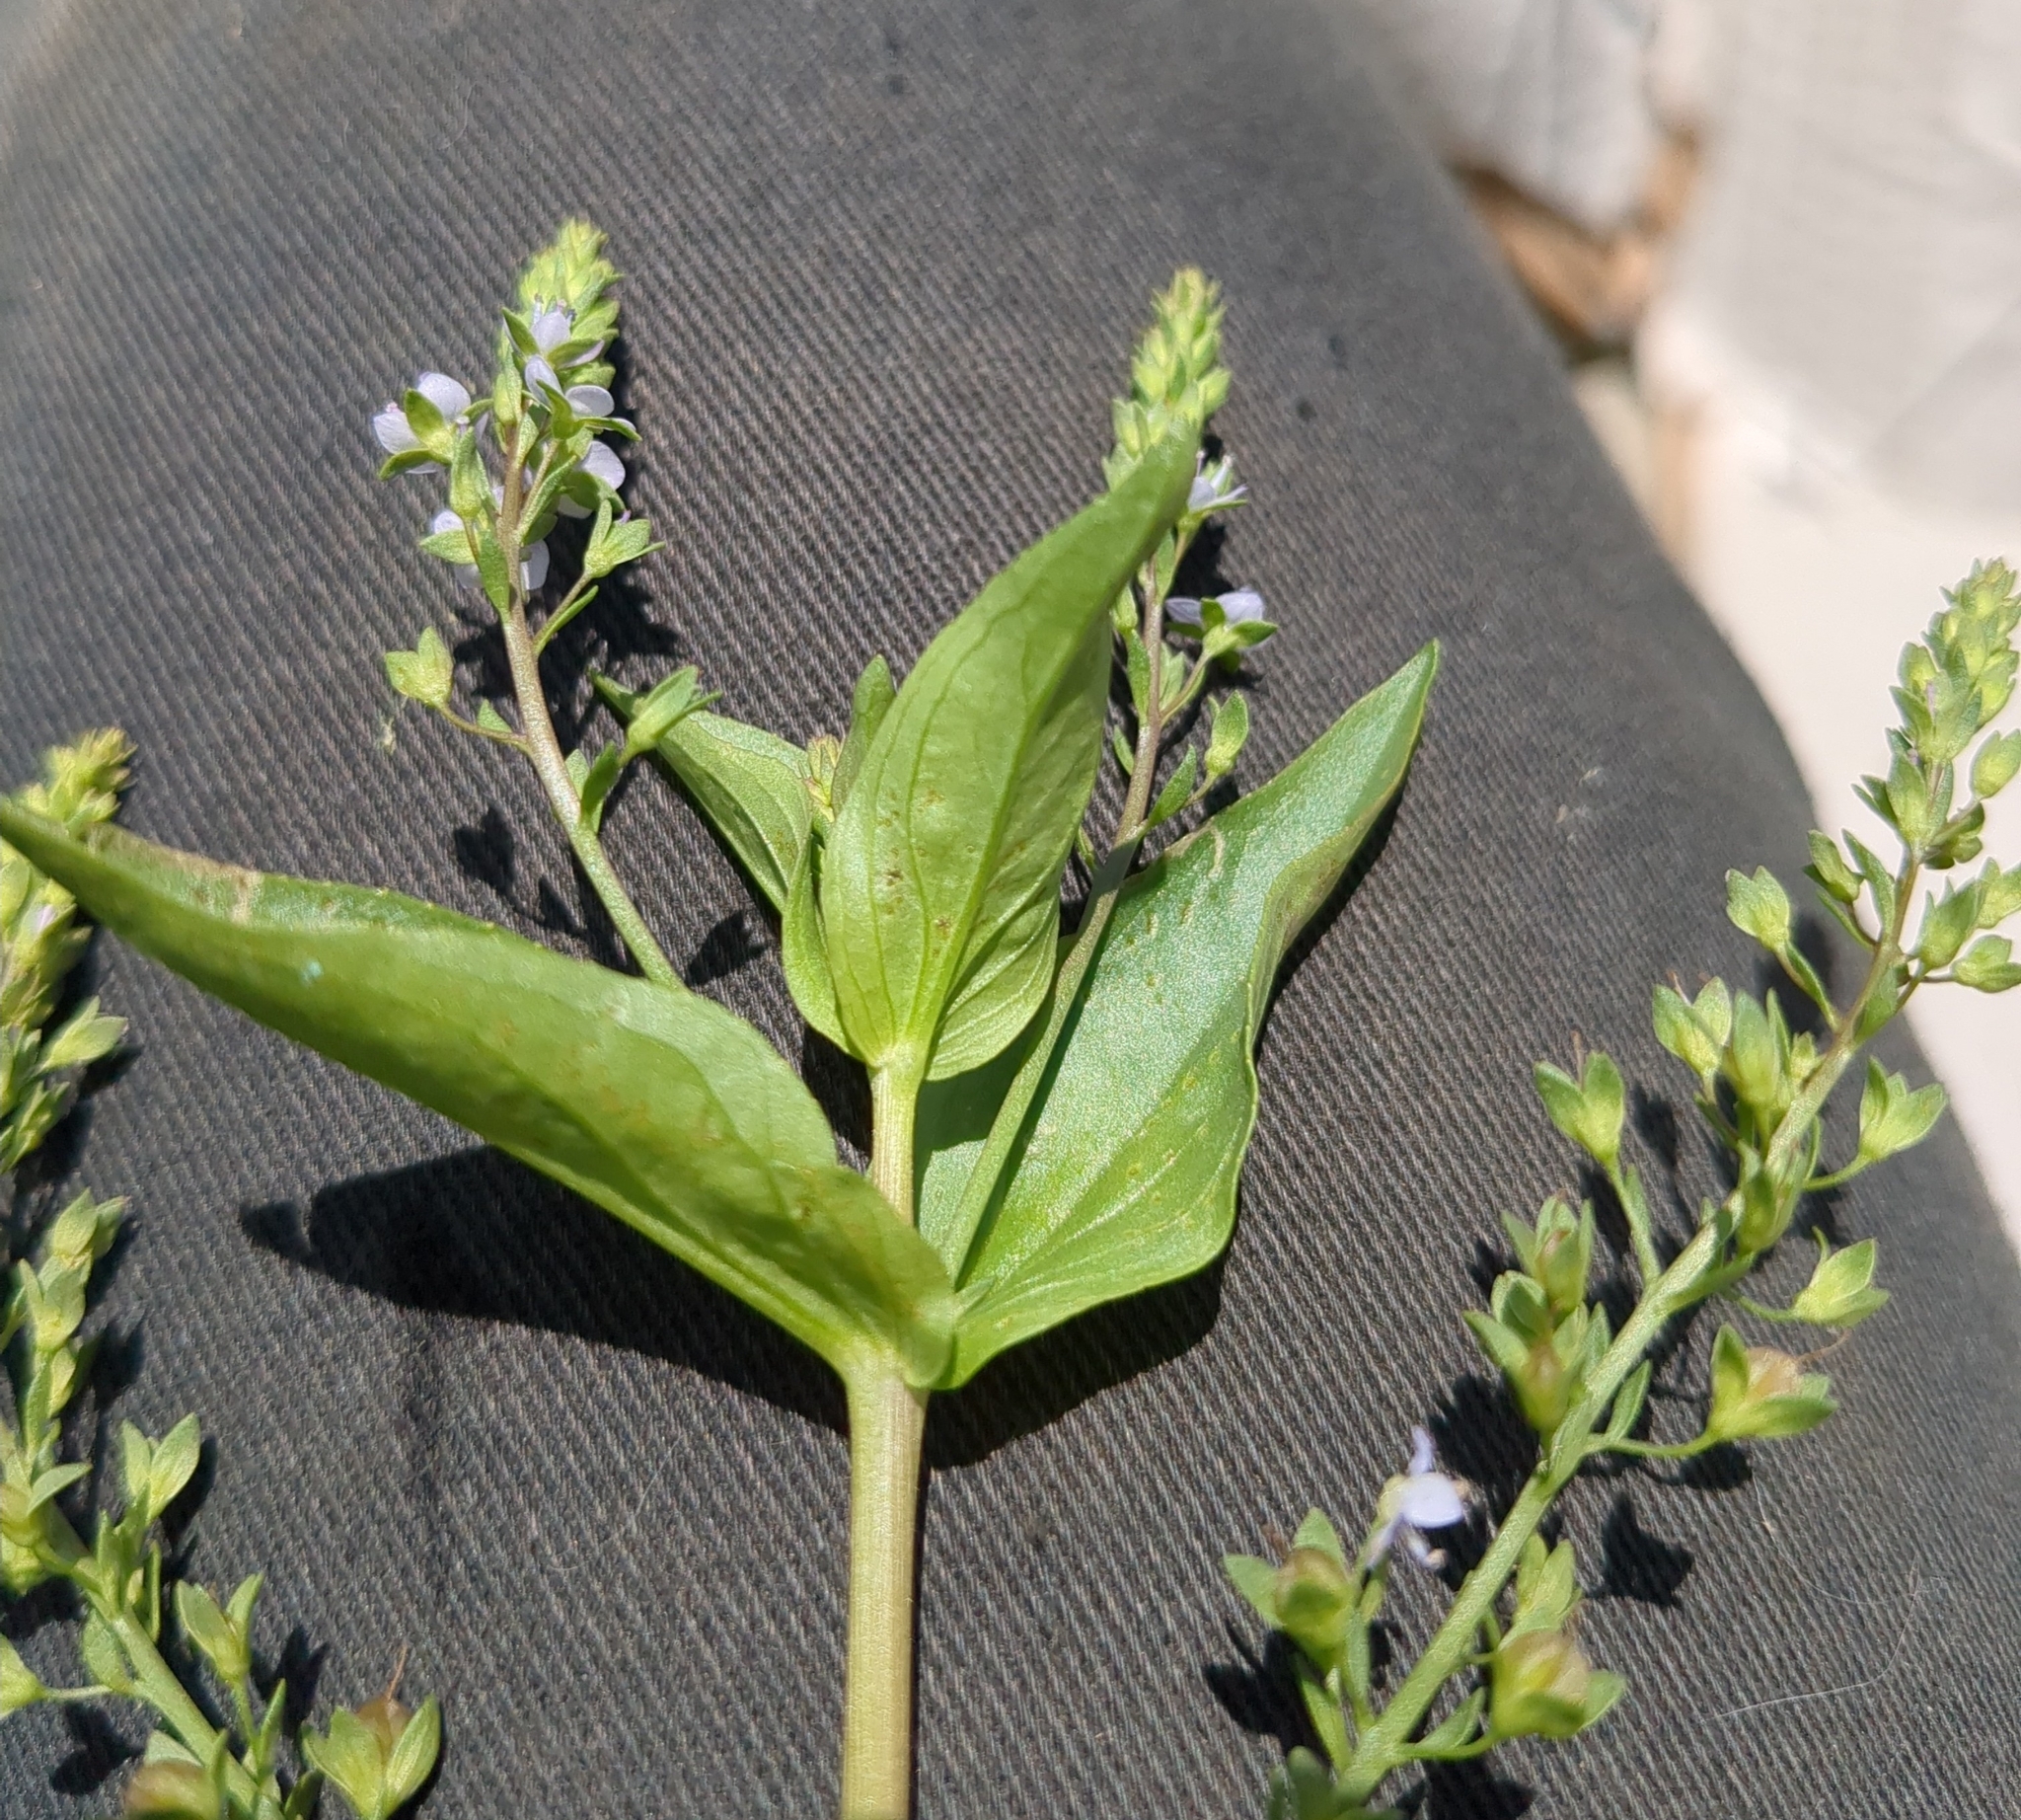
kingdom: Plantae
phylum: Tracheophyta
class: Magnoliopsida
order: Lamiales
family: Plantaginaceae
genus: Veronica
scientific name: Veronica anagallis-aquatica
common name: Water speedwell
